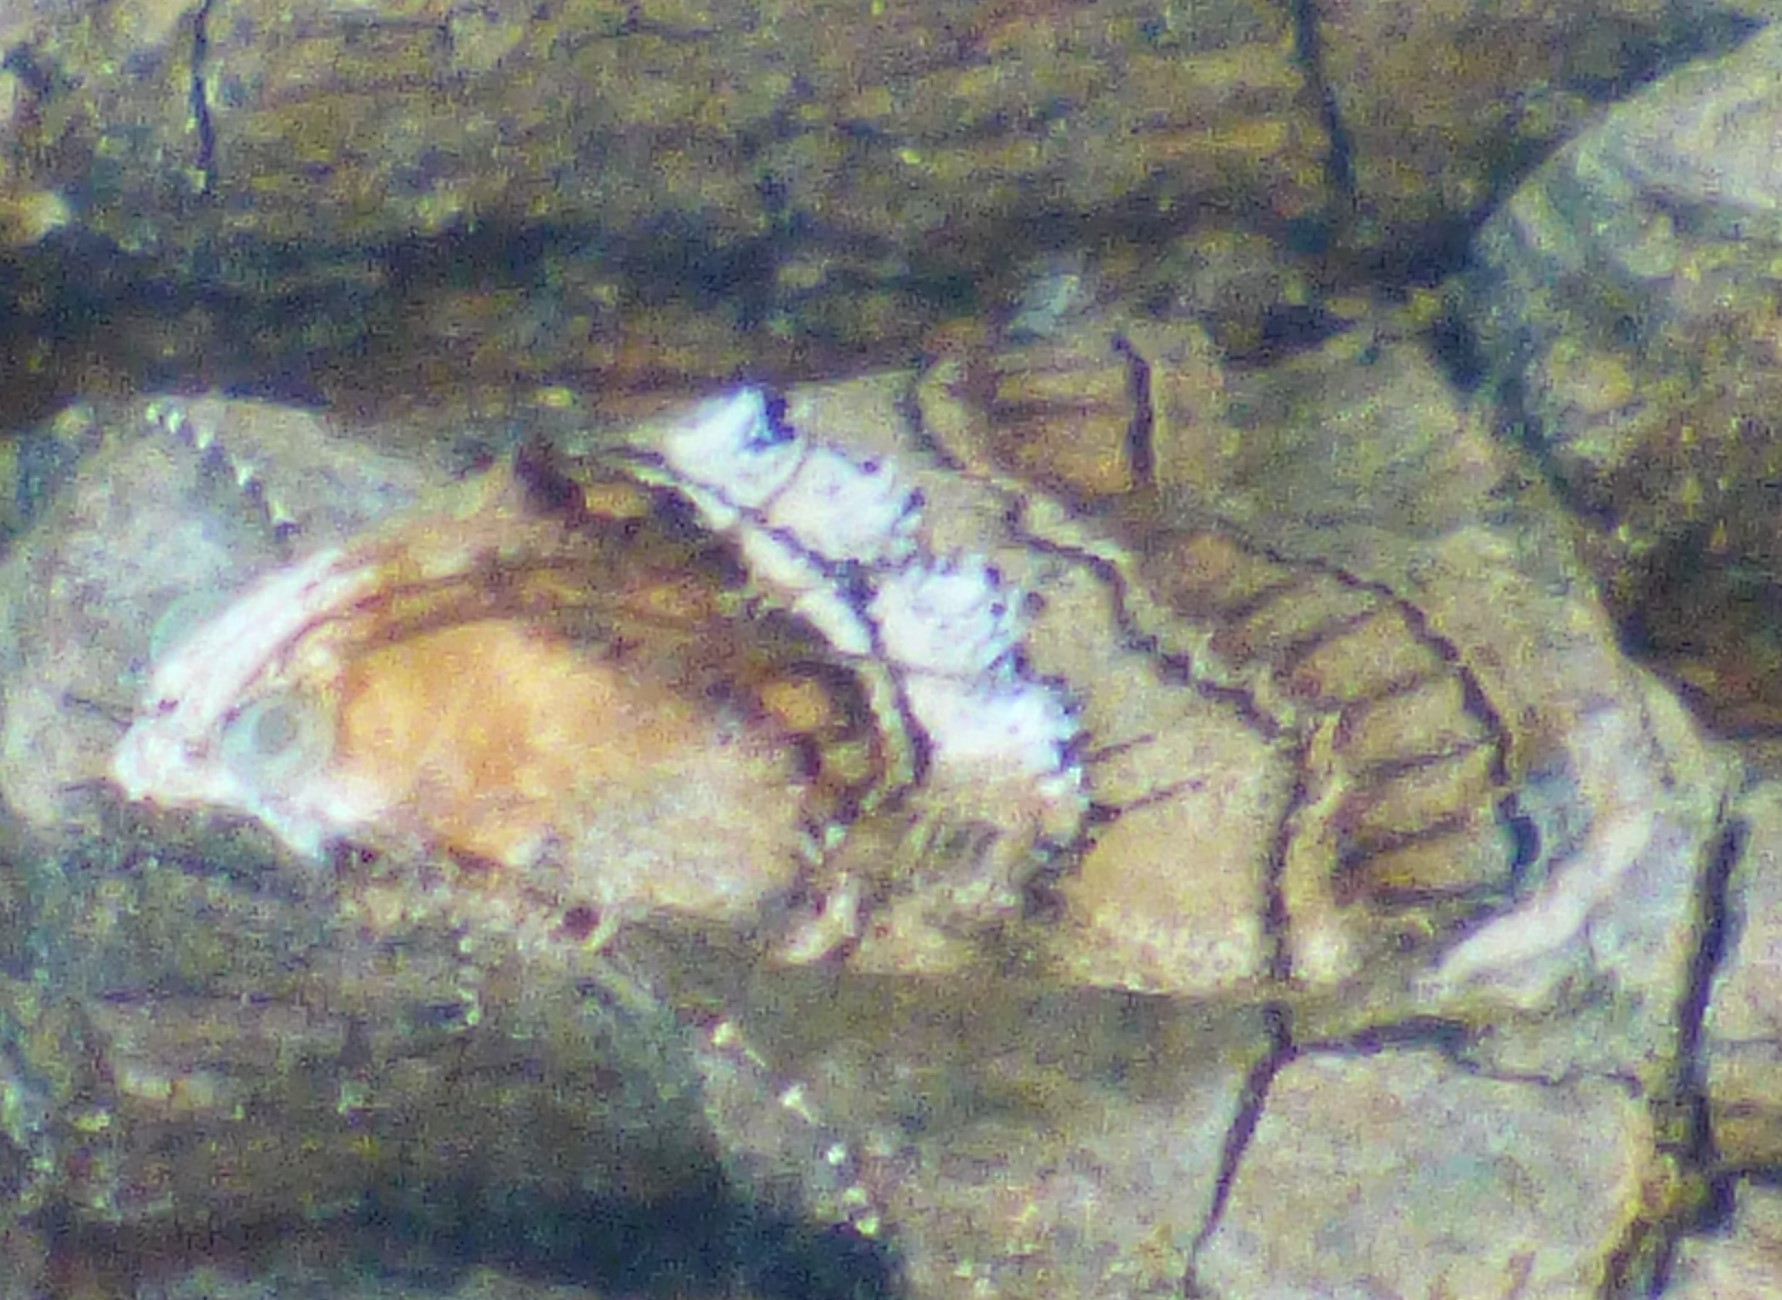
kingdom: Animalia
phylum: Arthropoda
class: Insecta
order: Lepidoptera
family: Pyralidae
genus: Pococera
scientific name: Pococera maritimalis
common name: Gray-banded pococera moth
